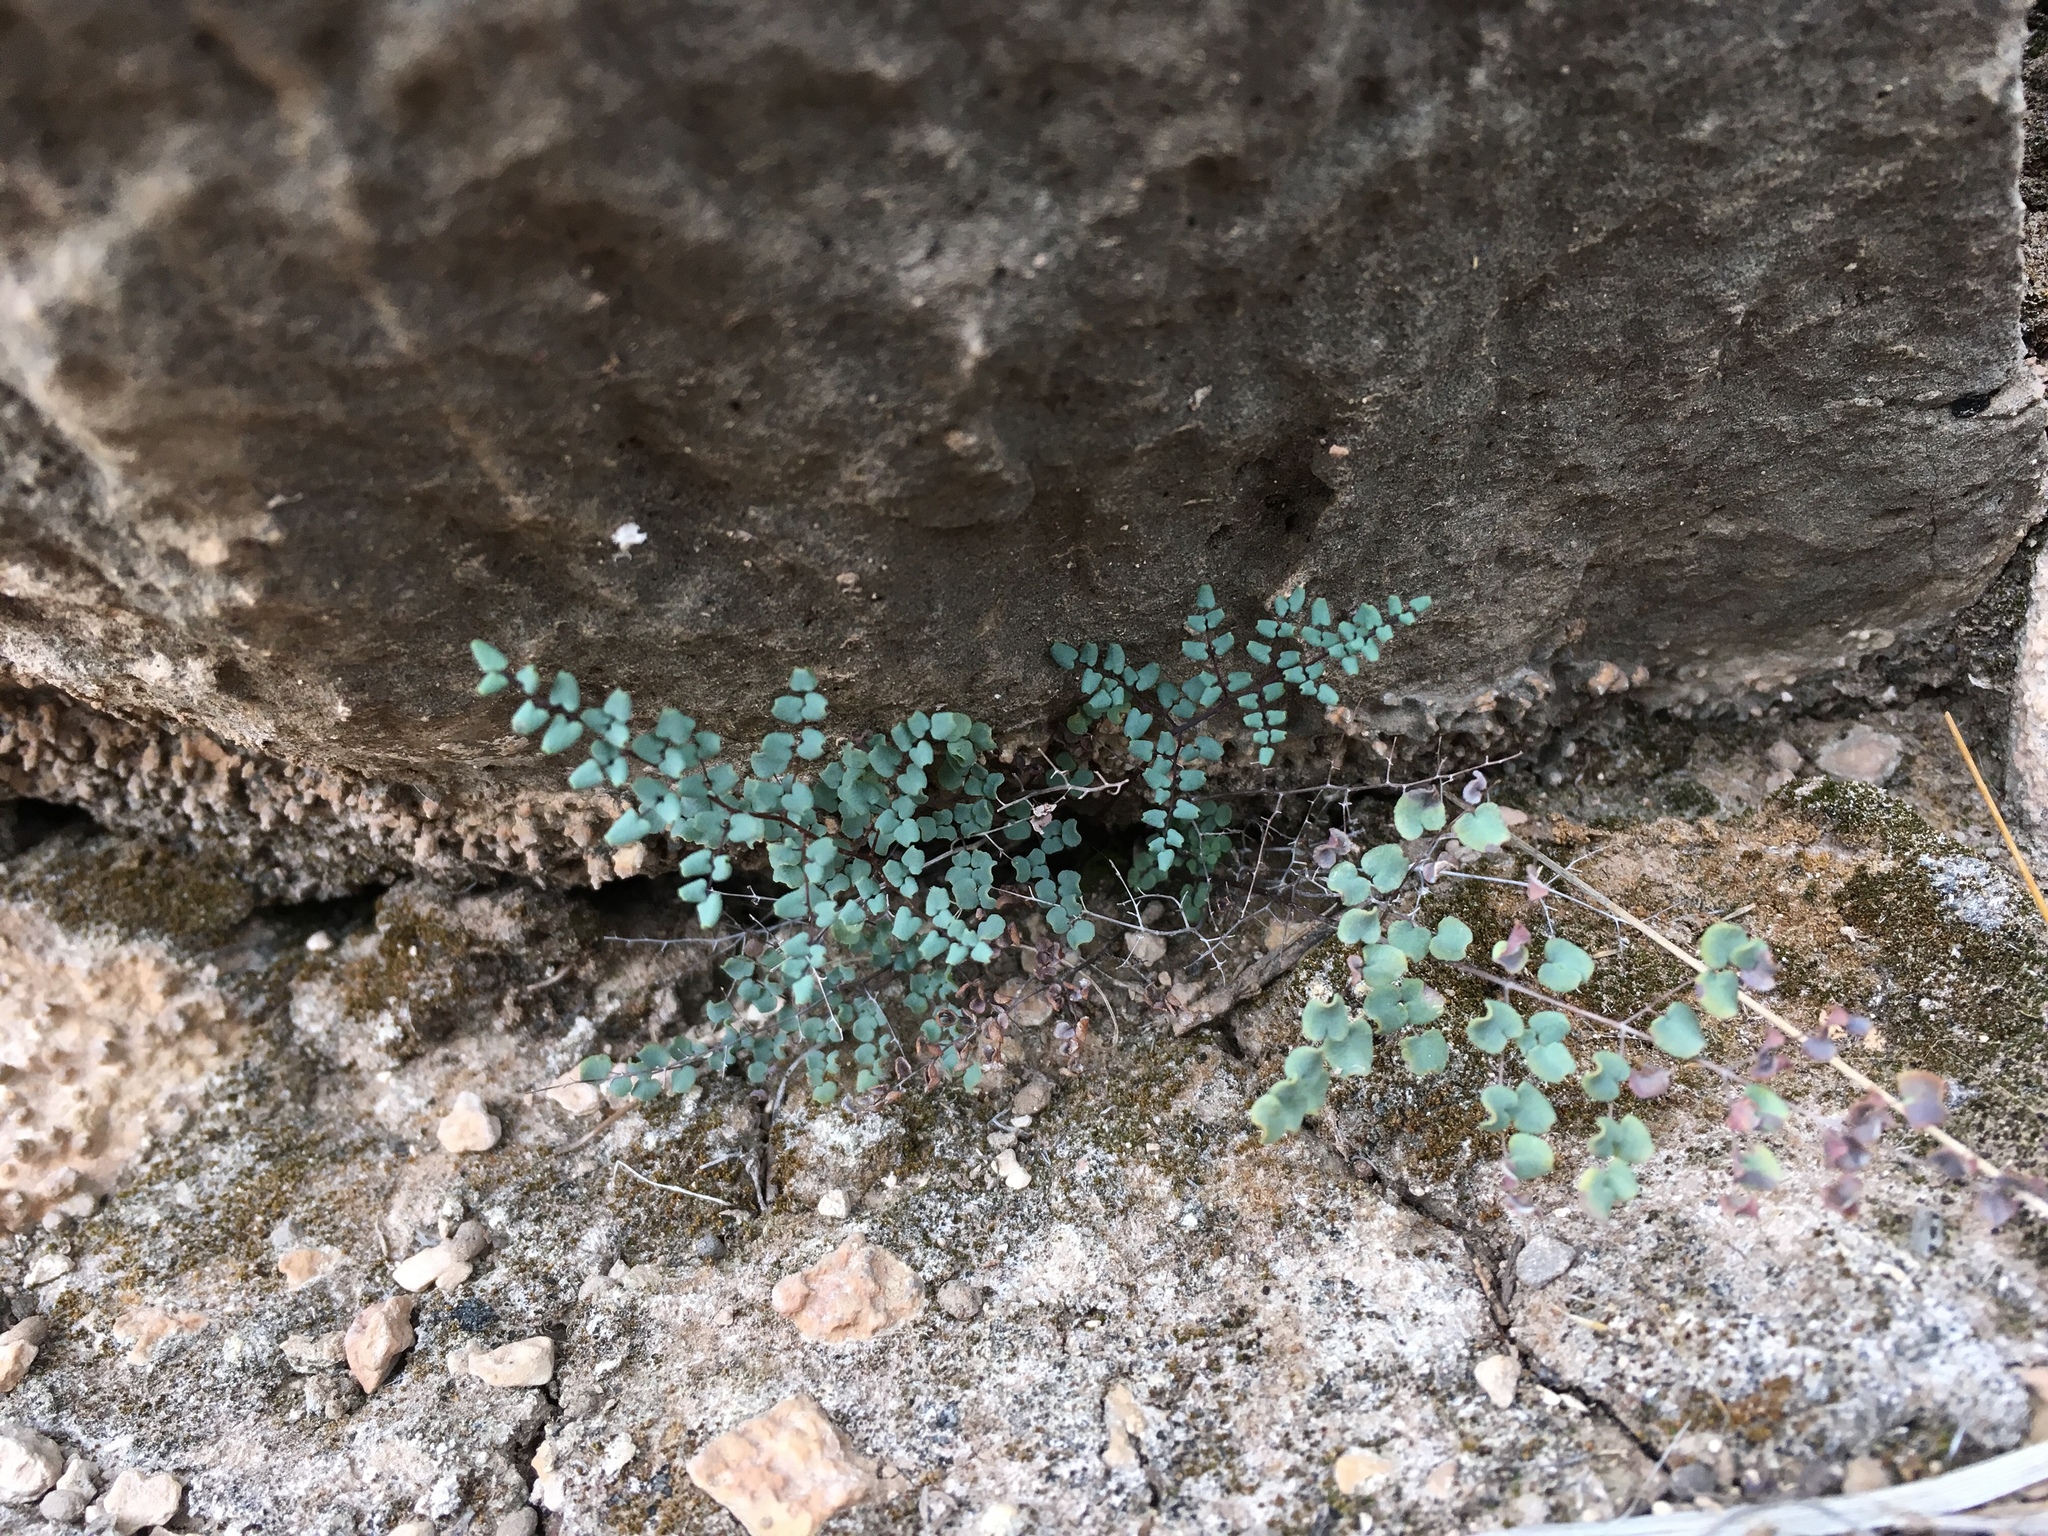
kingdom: Plantae
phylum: Tracheophyta
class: Polypodiopsida
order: Polypodiales
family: Pteridaceae
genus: Argyrochosma
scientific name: Argyrochosma microphylla
